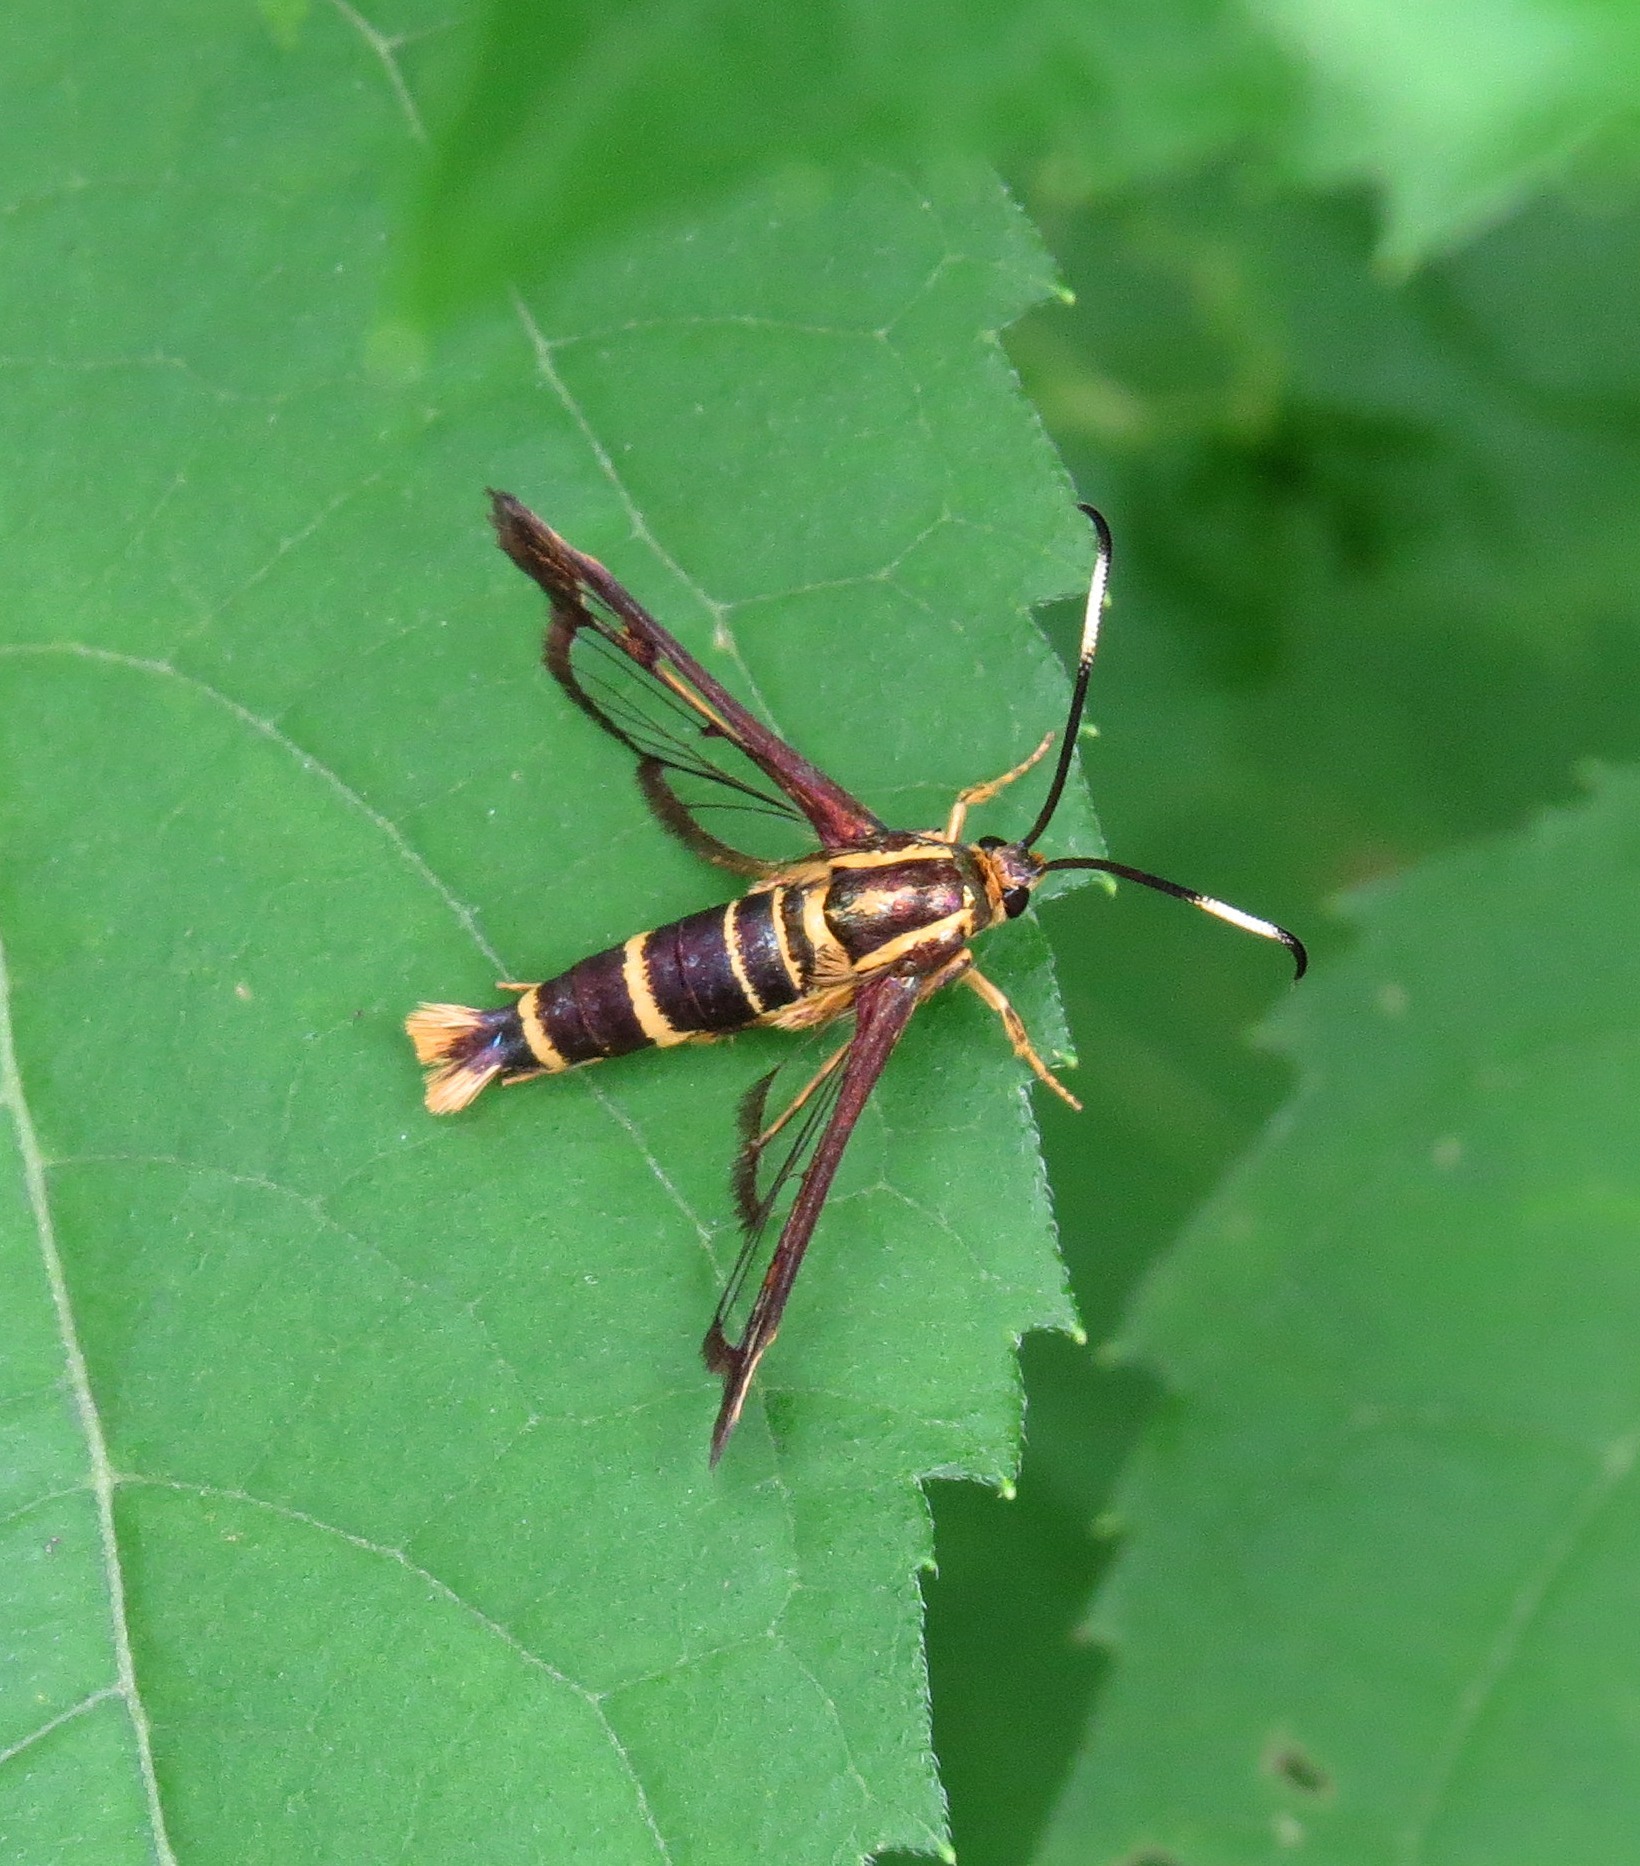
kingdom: Animalia
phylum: Arthropoda
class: Insecta
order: Lepidoptera
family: Sesiidae
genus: Carmenta
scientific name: Carmenta bassiformis
